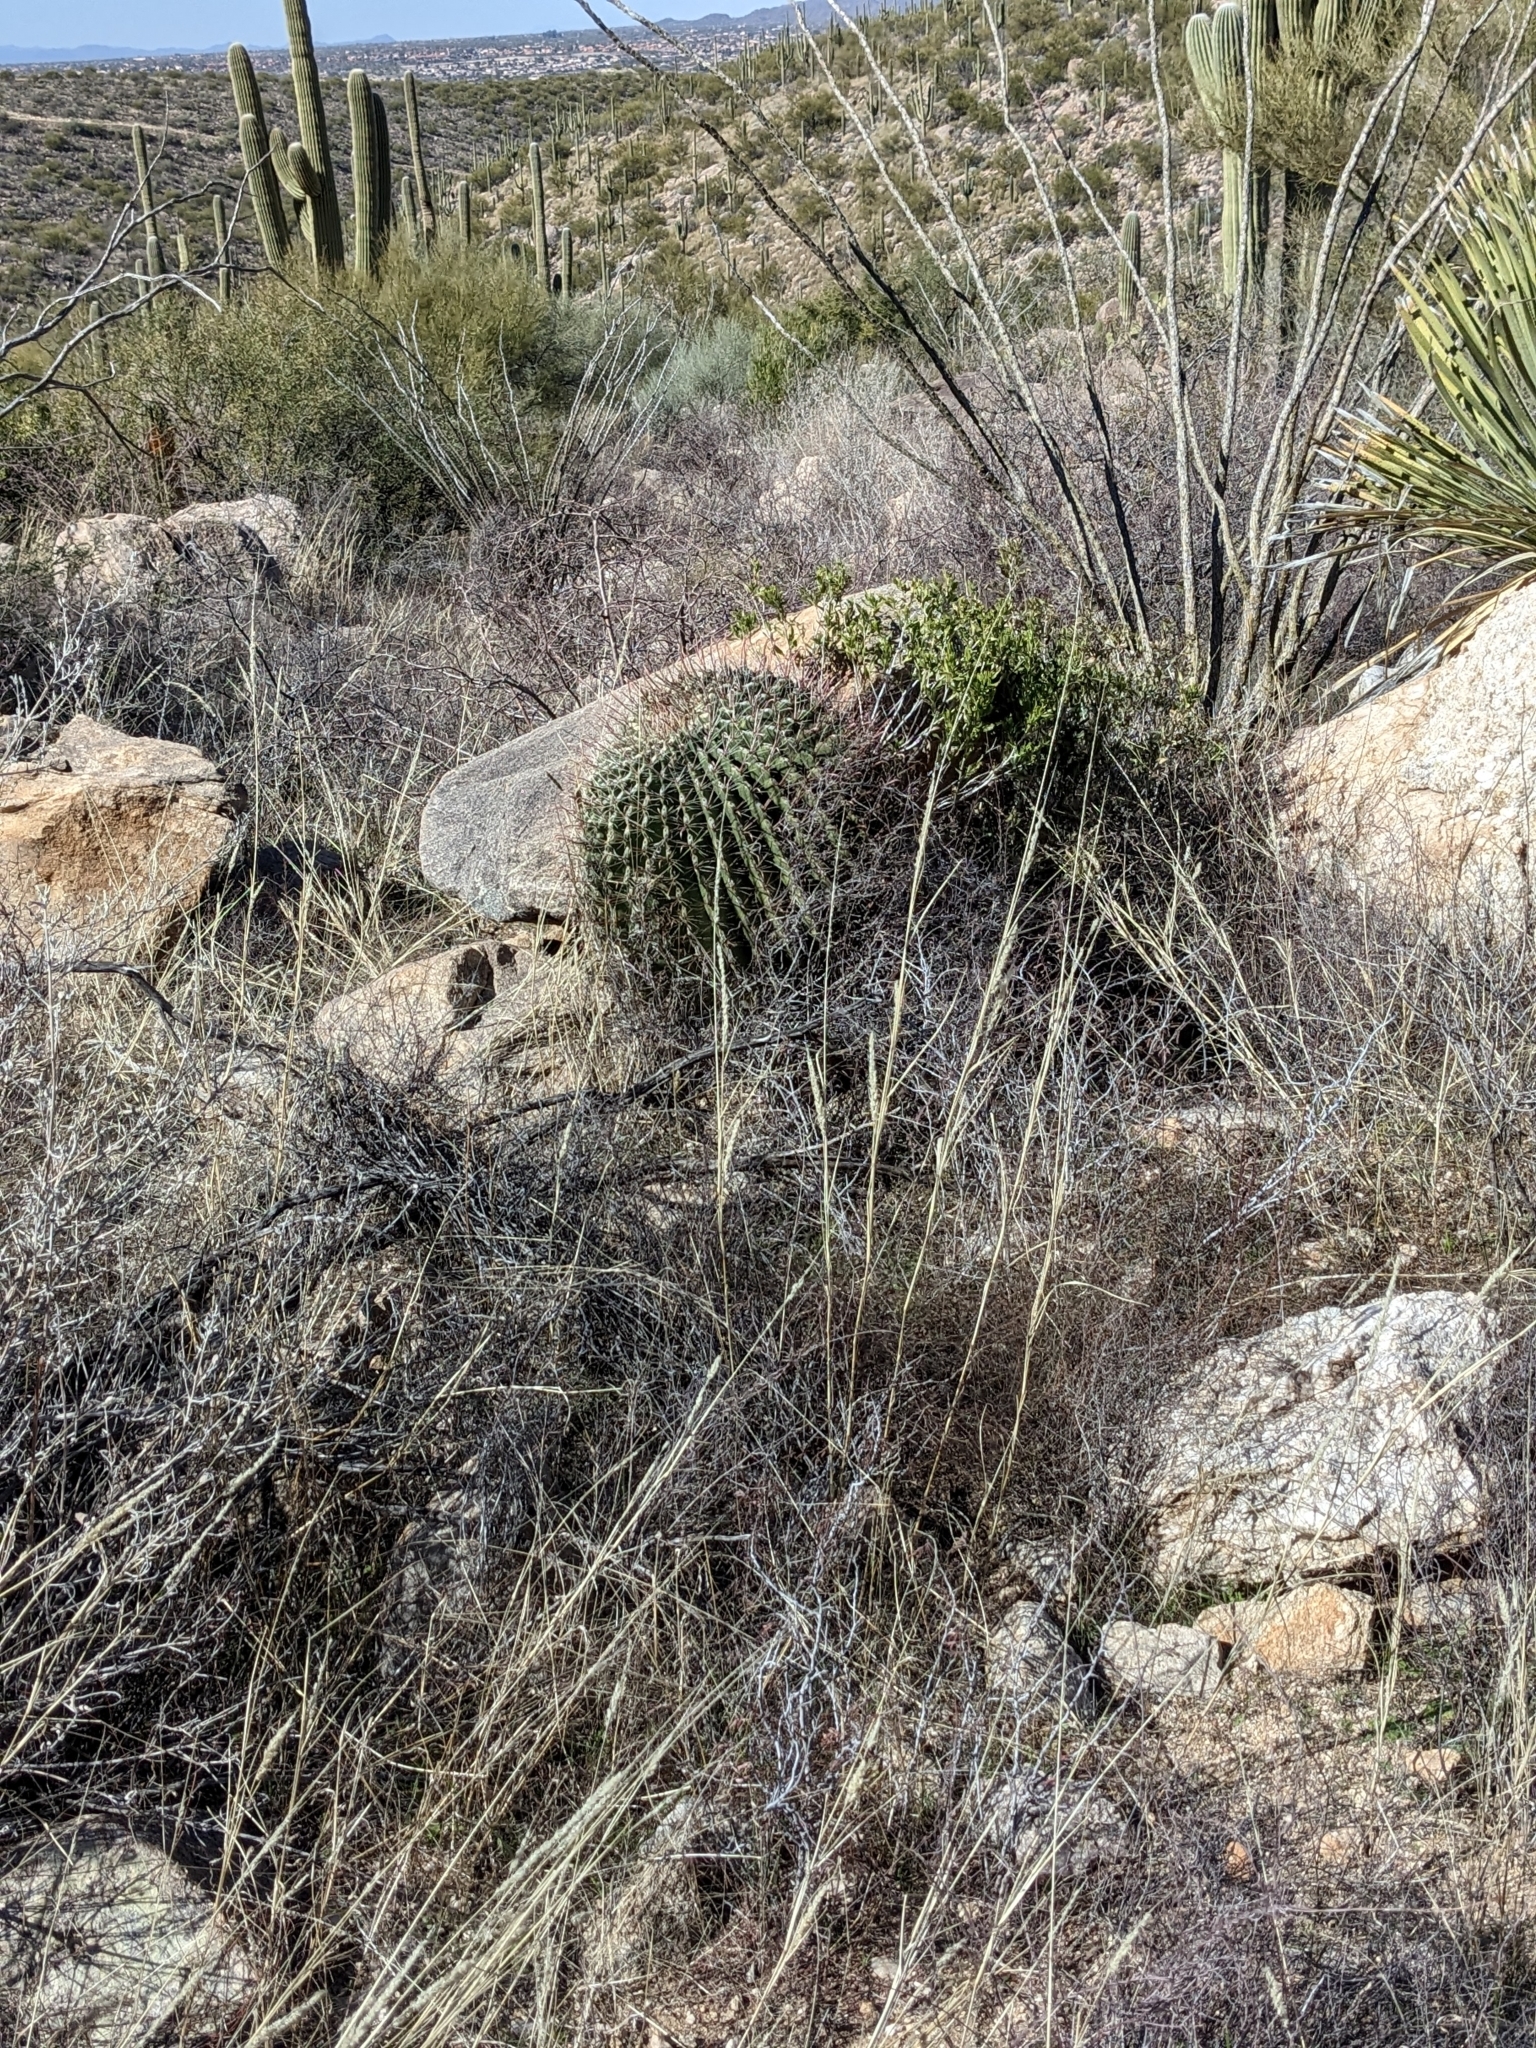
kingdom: Plantae
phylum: Tracheophyta
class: Magnoliopsida
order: Caryophyllales
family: Cactaceae
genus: Ferocactus
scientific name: Ferocactus wislizeni
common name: Candy barrel cactus
